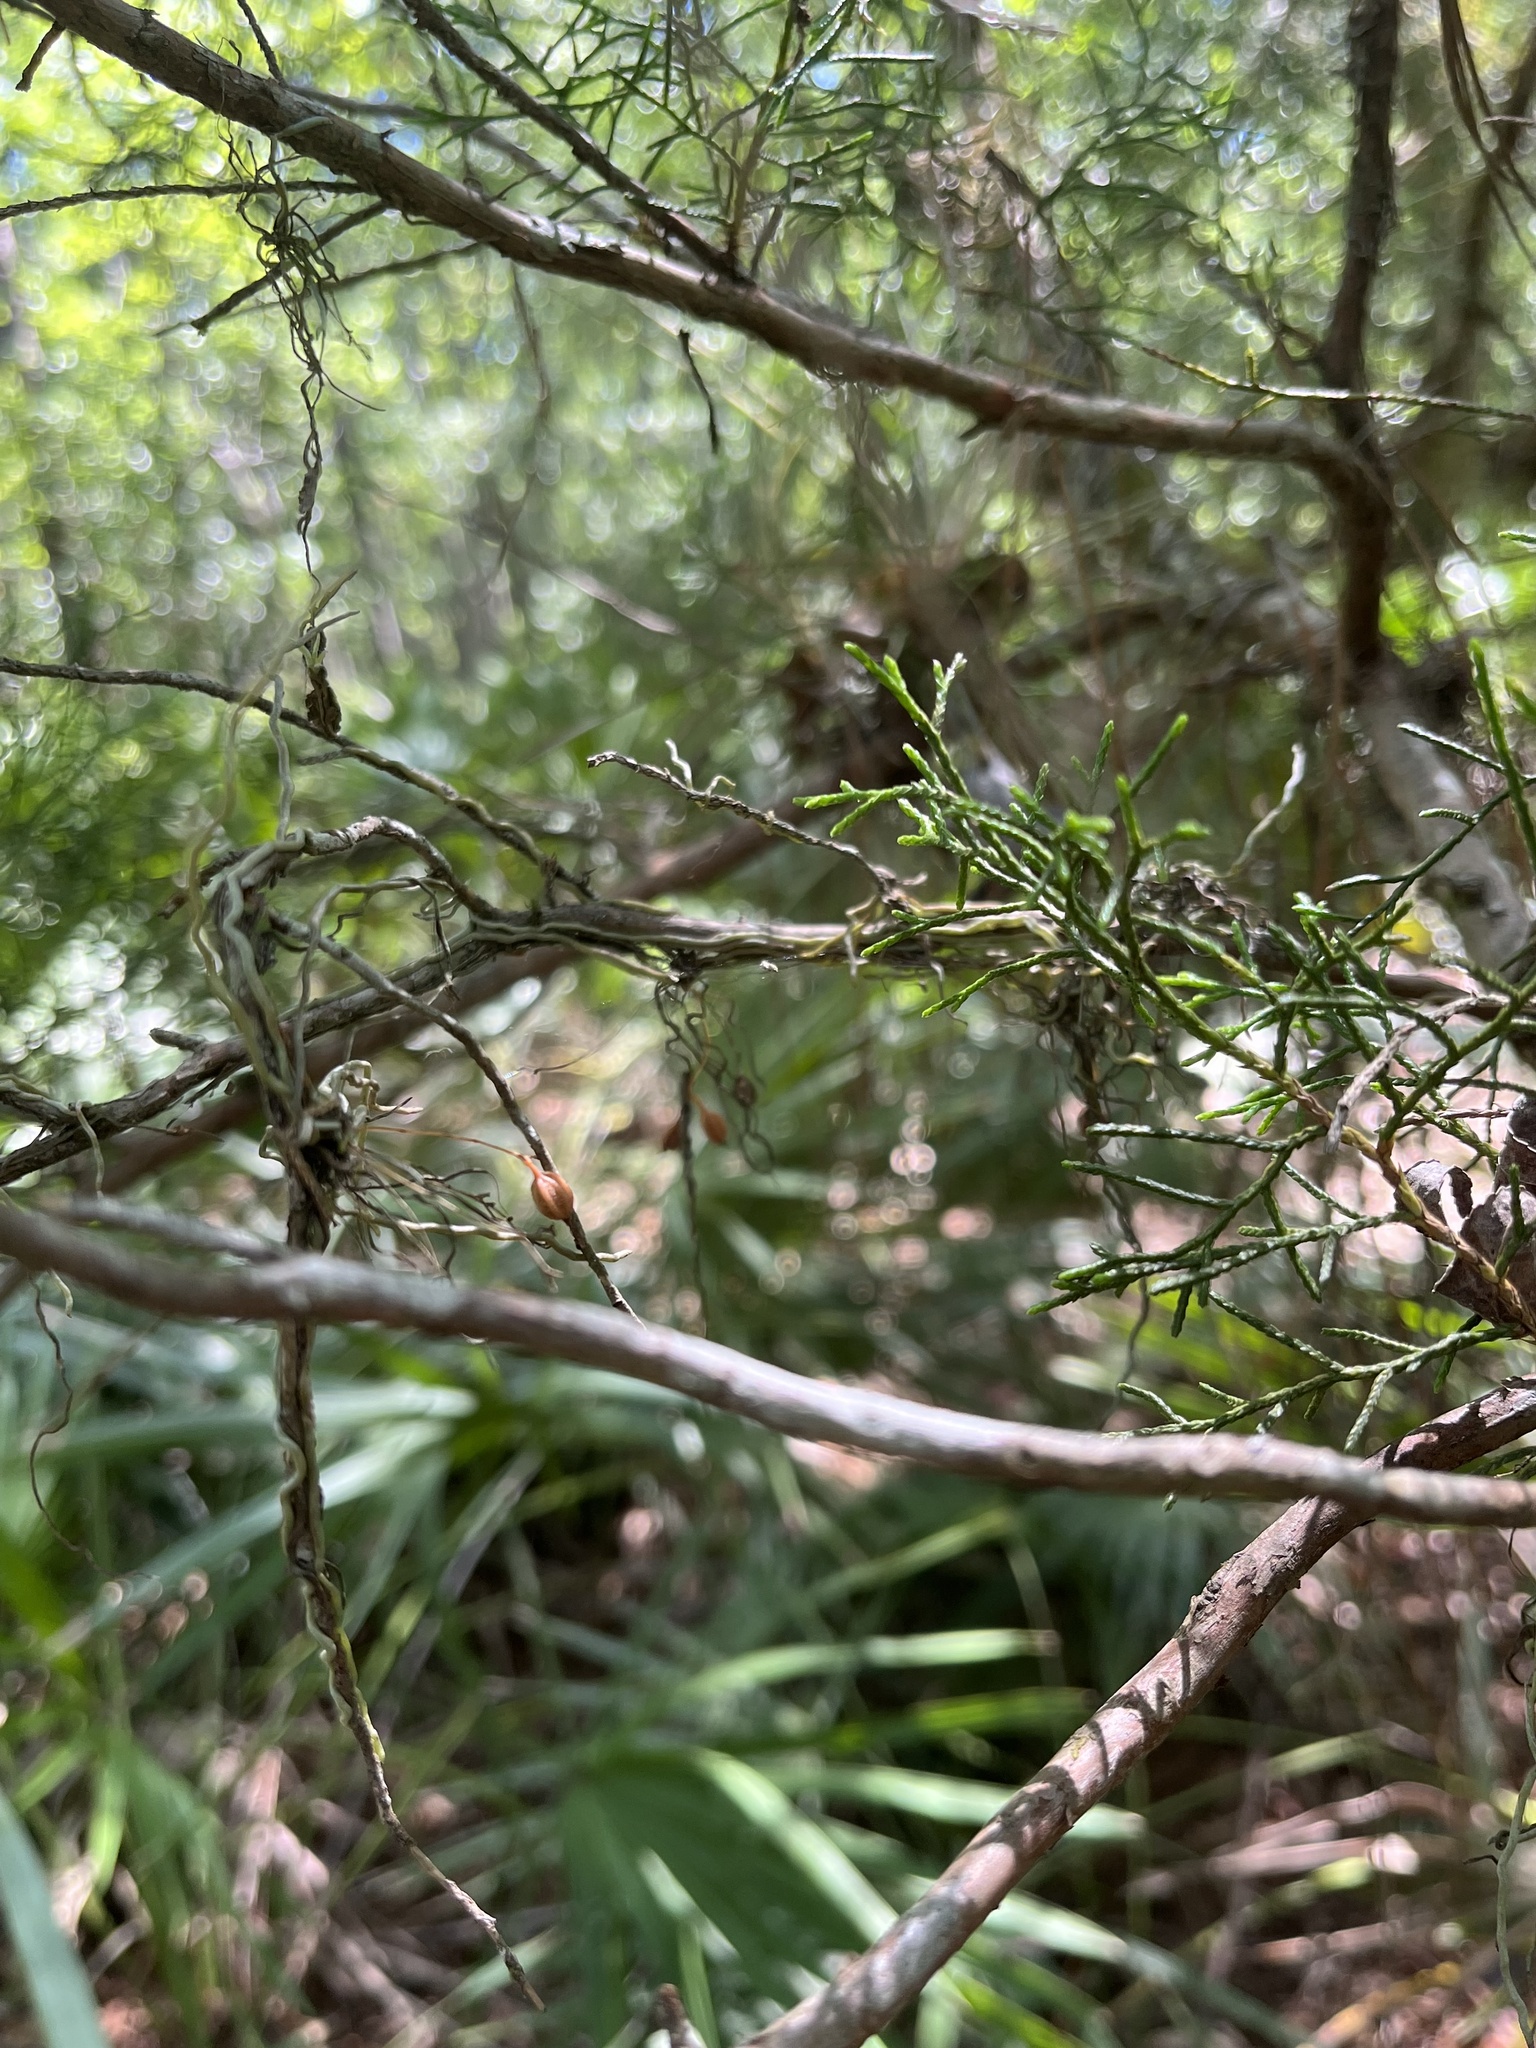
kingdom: Plantae
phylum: Tracheophyta
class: Liliopsida
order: Asparagales
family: Orchidaceae
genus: Dendrophylax
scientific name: Dendrophylax porrectus
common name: Needleroot airplant orchid
